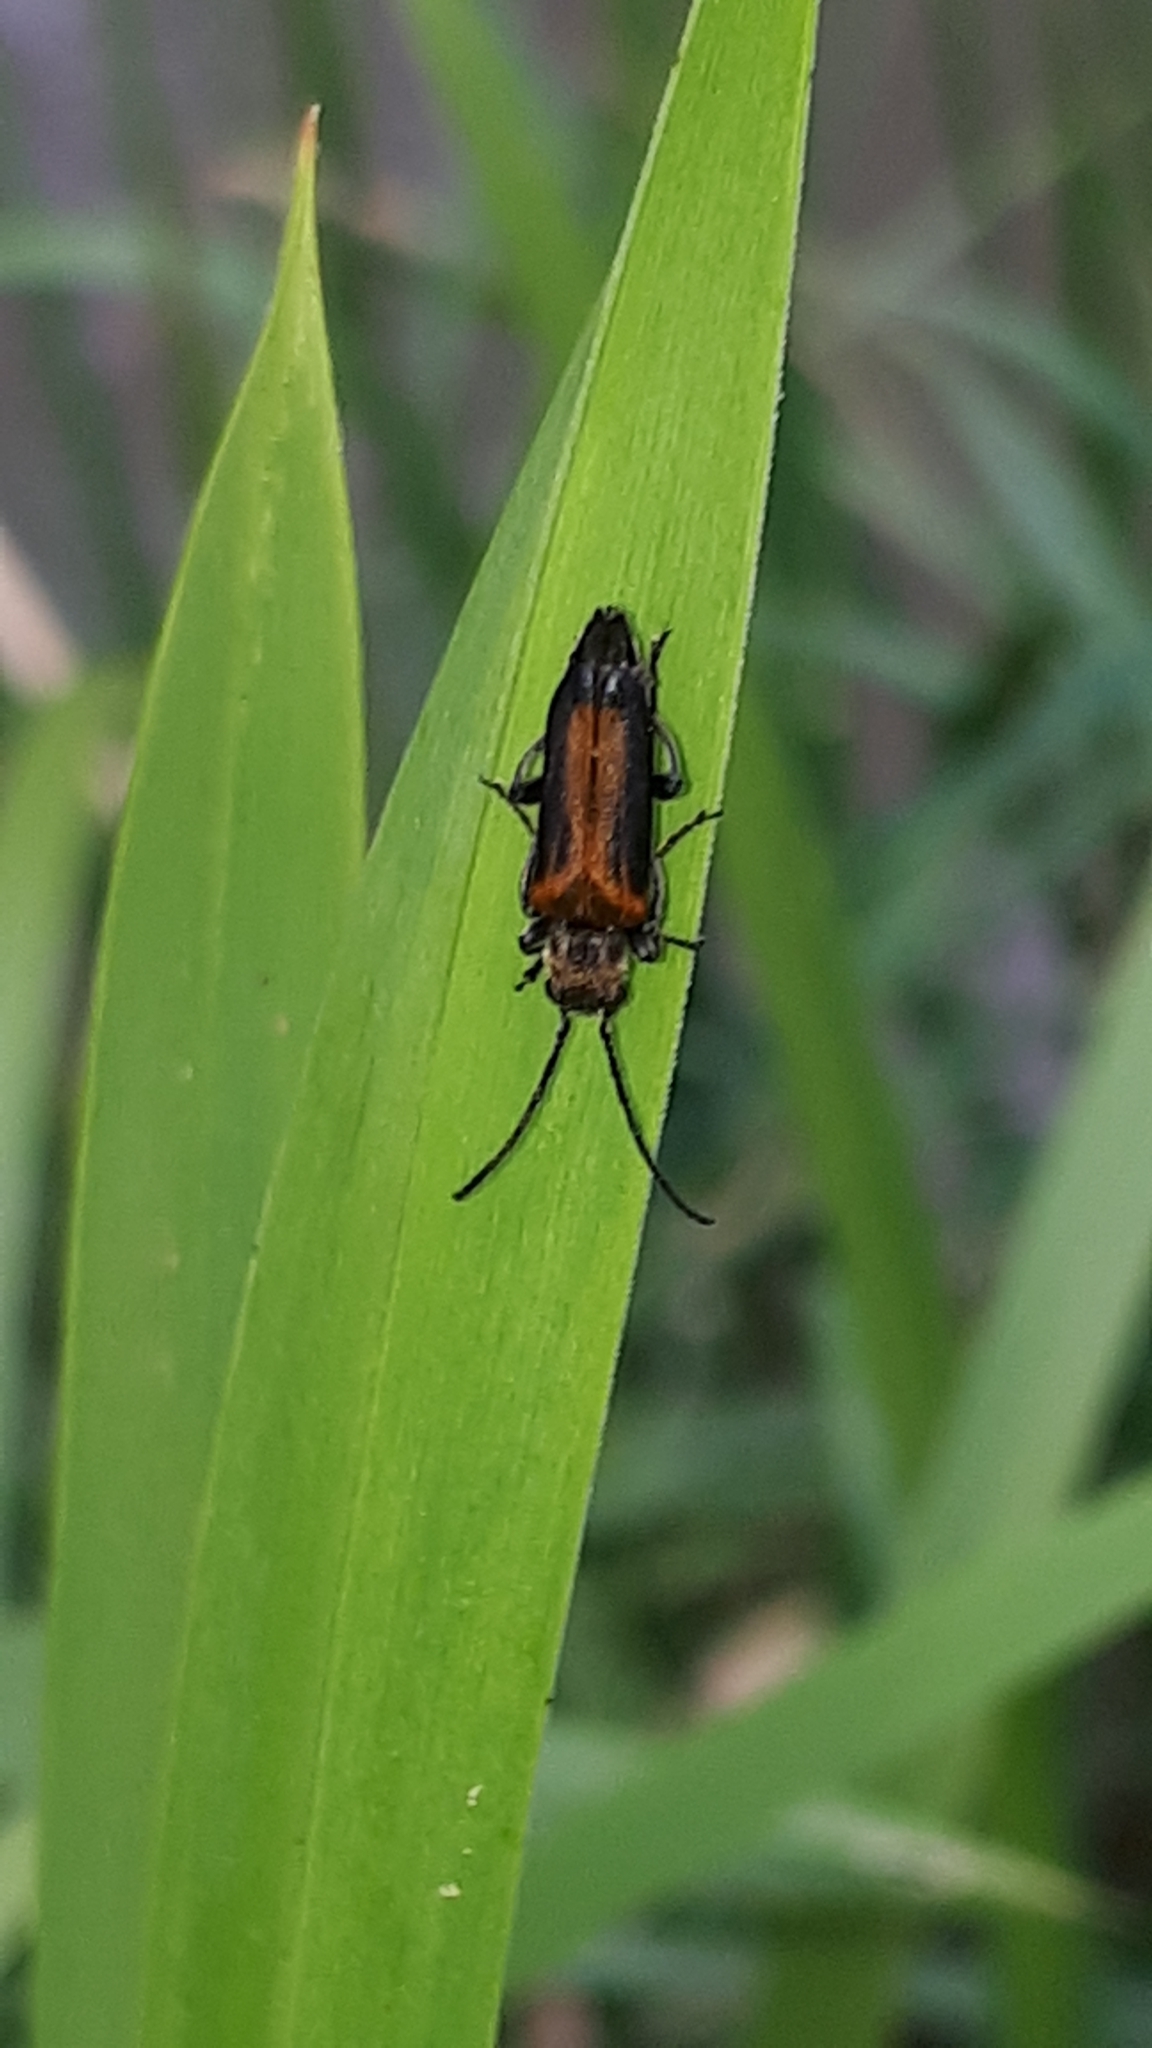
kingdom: Animalia
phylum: Arthropoda
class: Insecta
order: Coleoptera
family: Oedemeridae
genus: Anogcodes
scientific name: Anogcodes melanurus
